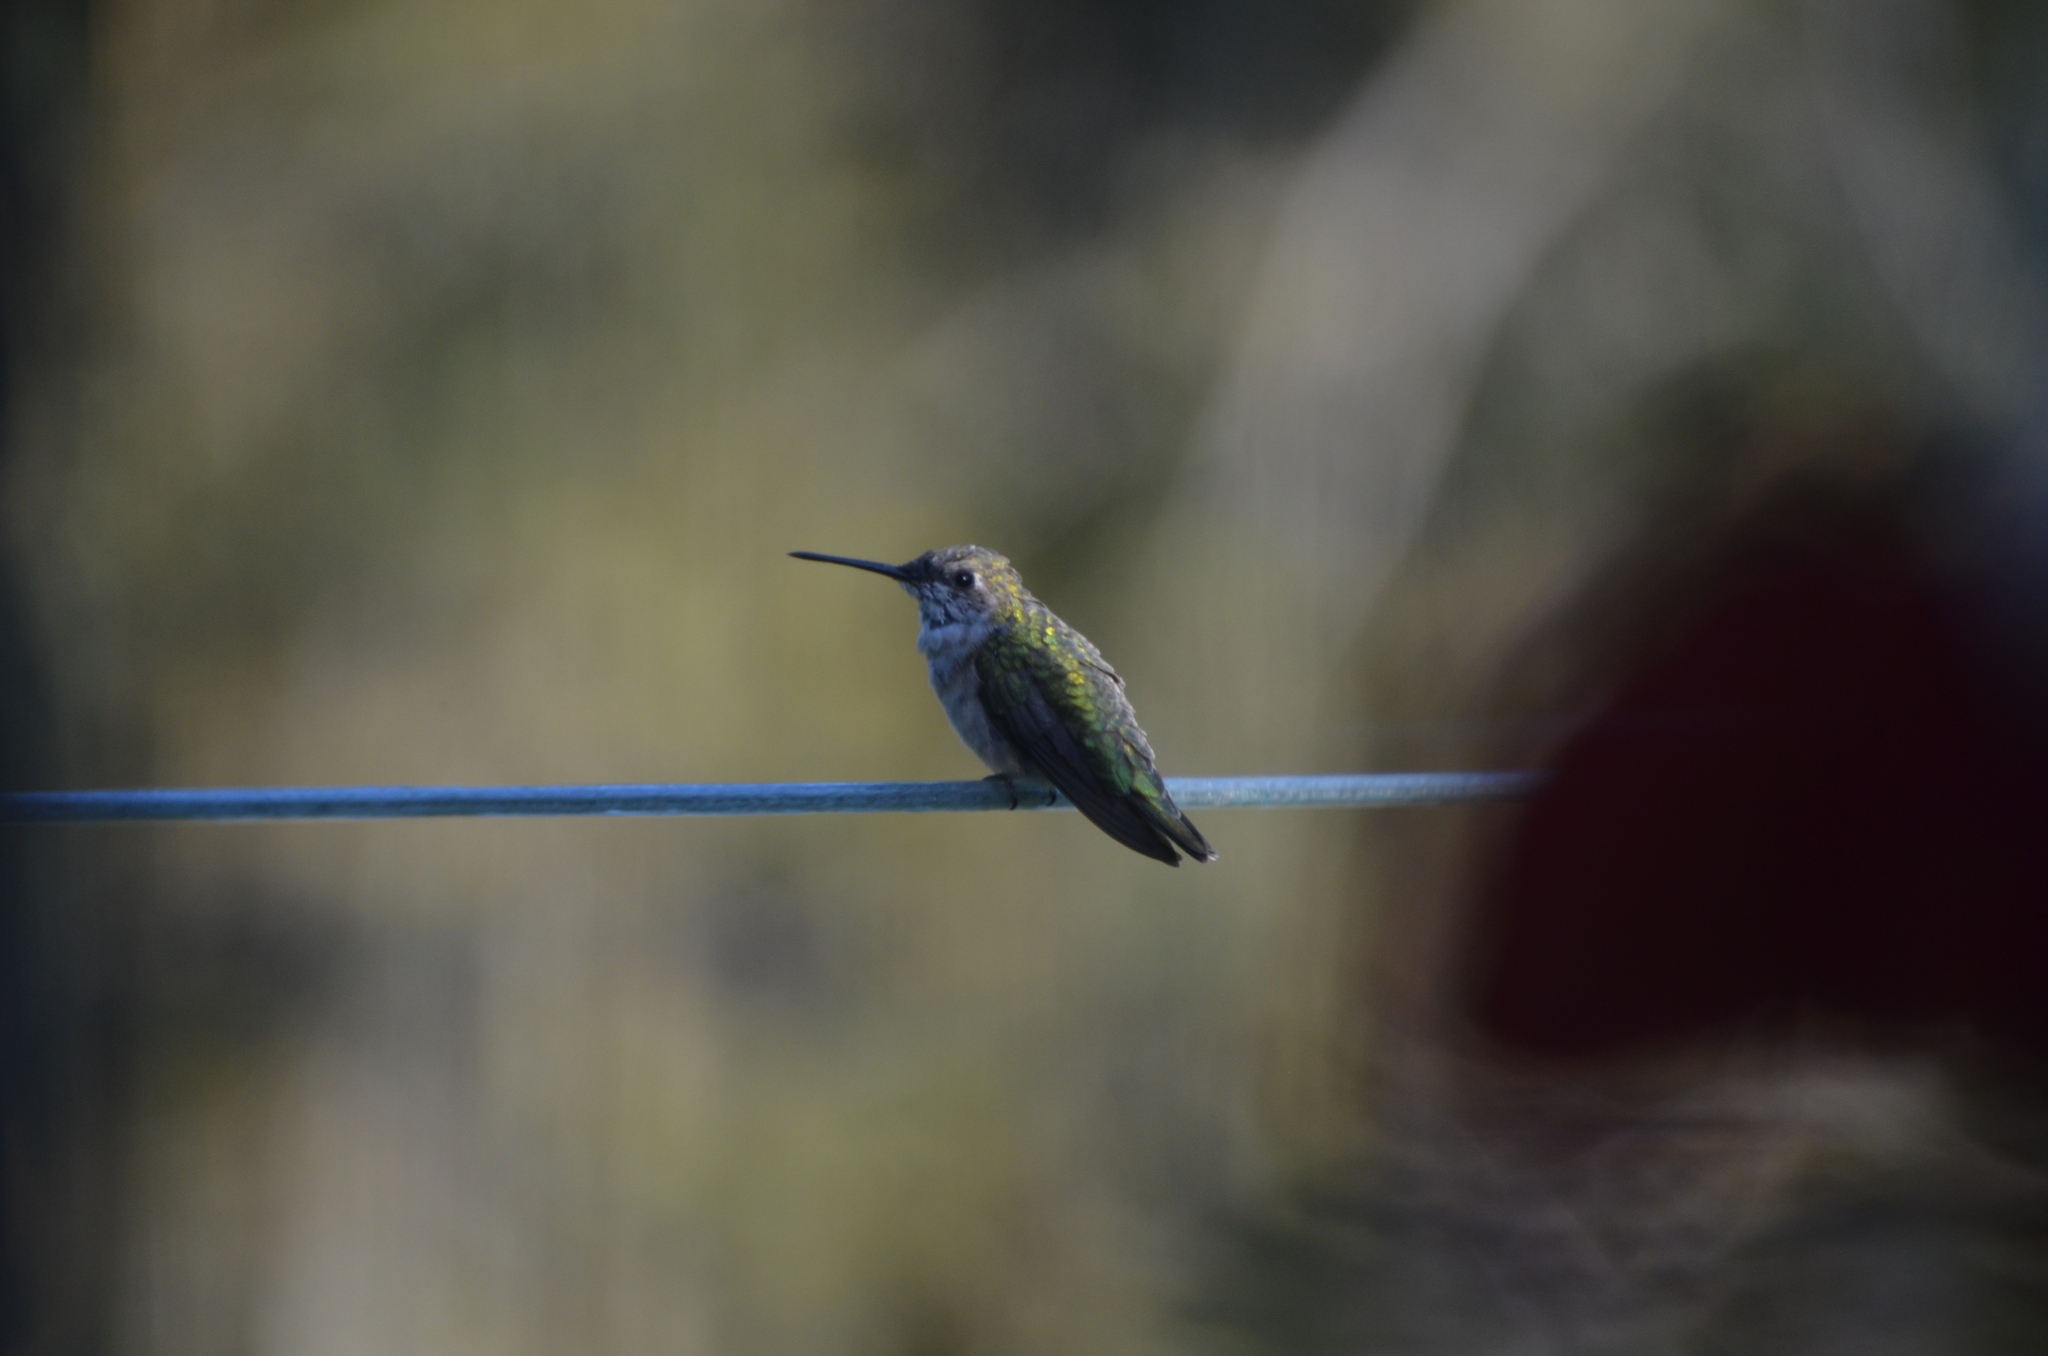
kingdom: Animalia
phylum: Chordata
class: Aves
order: Apodiformes
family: Trochilidae
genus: Archilochus
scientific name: Archilochus colubris
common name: Ruby-throated hummingbird
